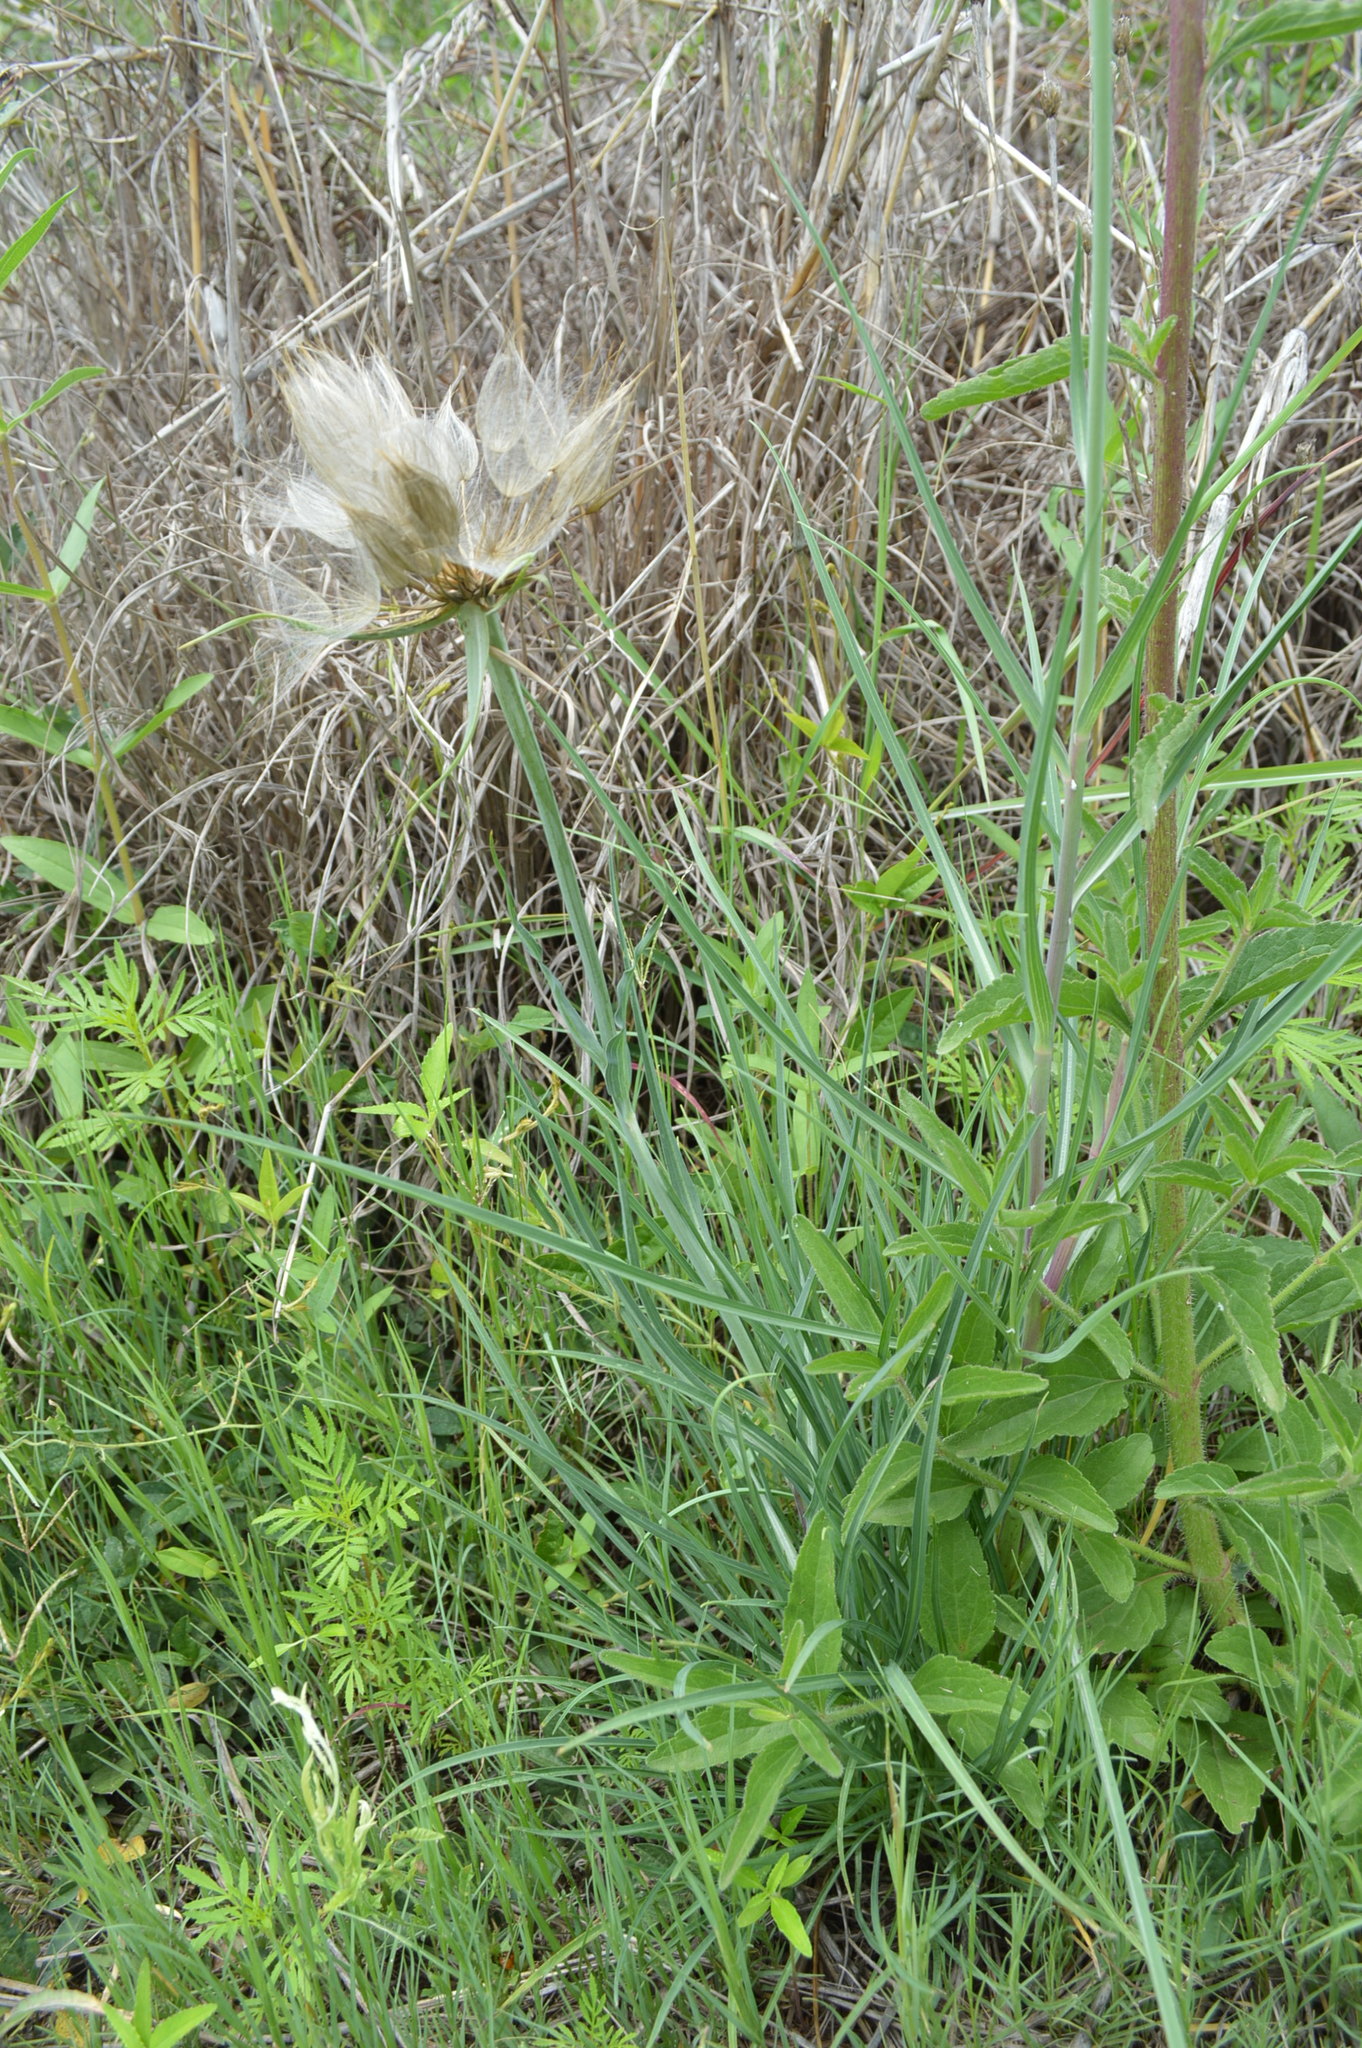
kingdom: Plantae
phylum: Tracheophyta
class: Magnoliopsida
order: Asterales
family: Asteraceae
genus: Tragopogon
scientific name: Tragopogon dubius
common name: Yellow salsify
